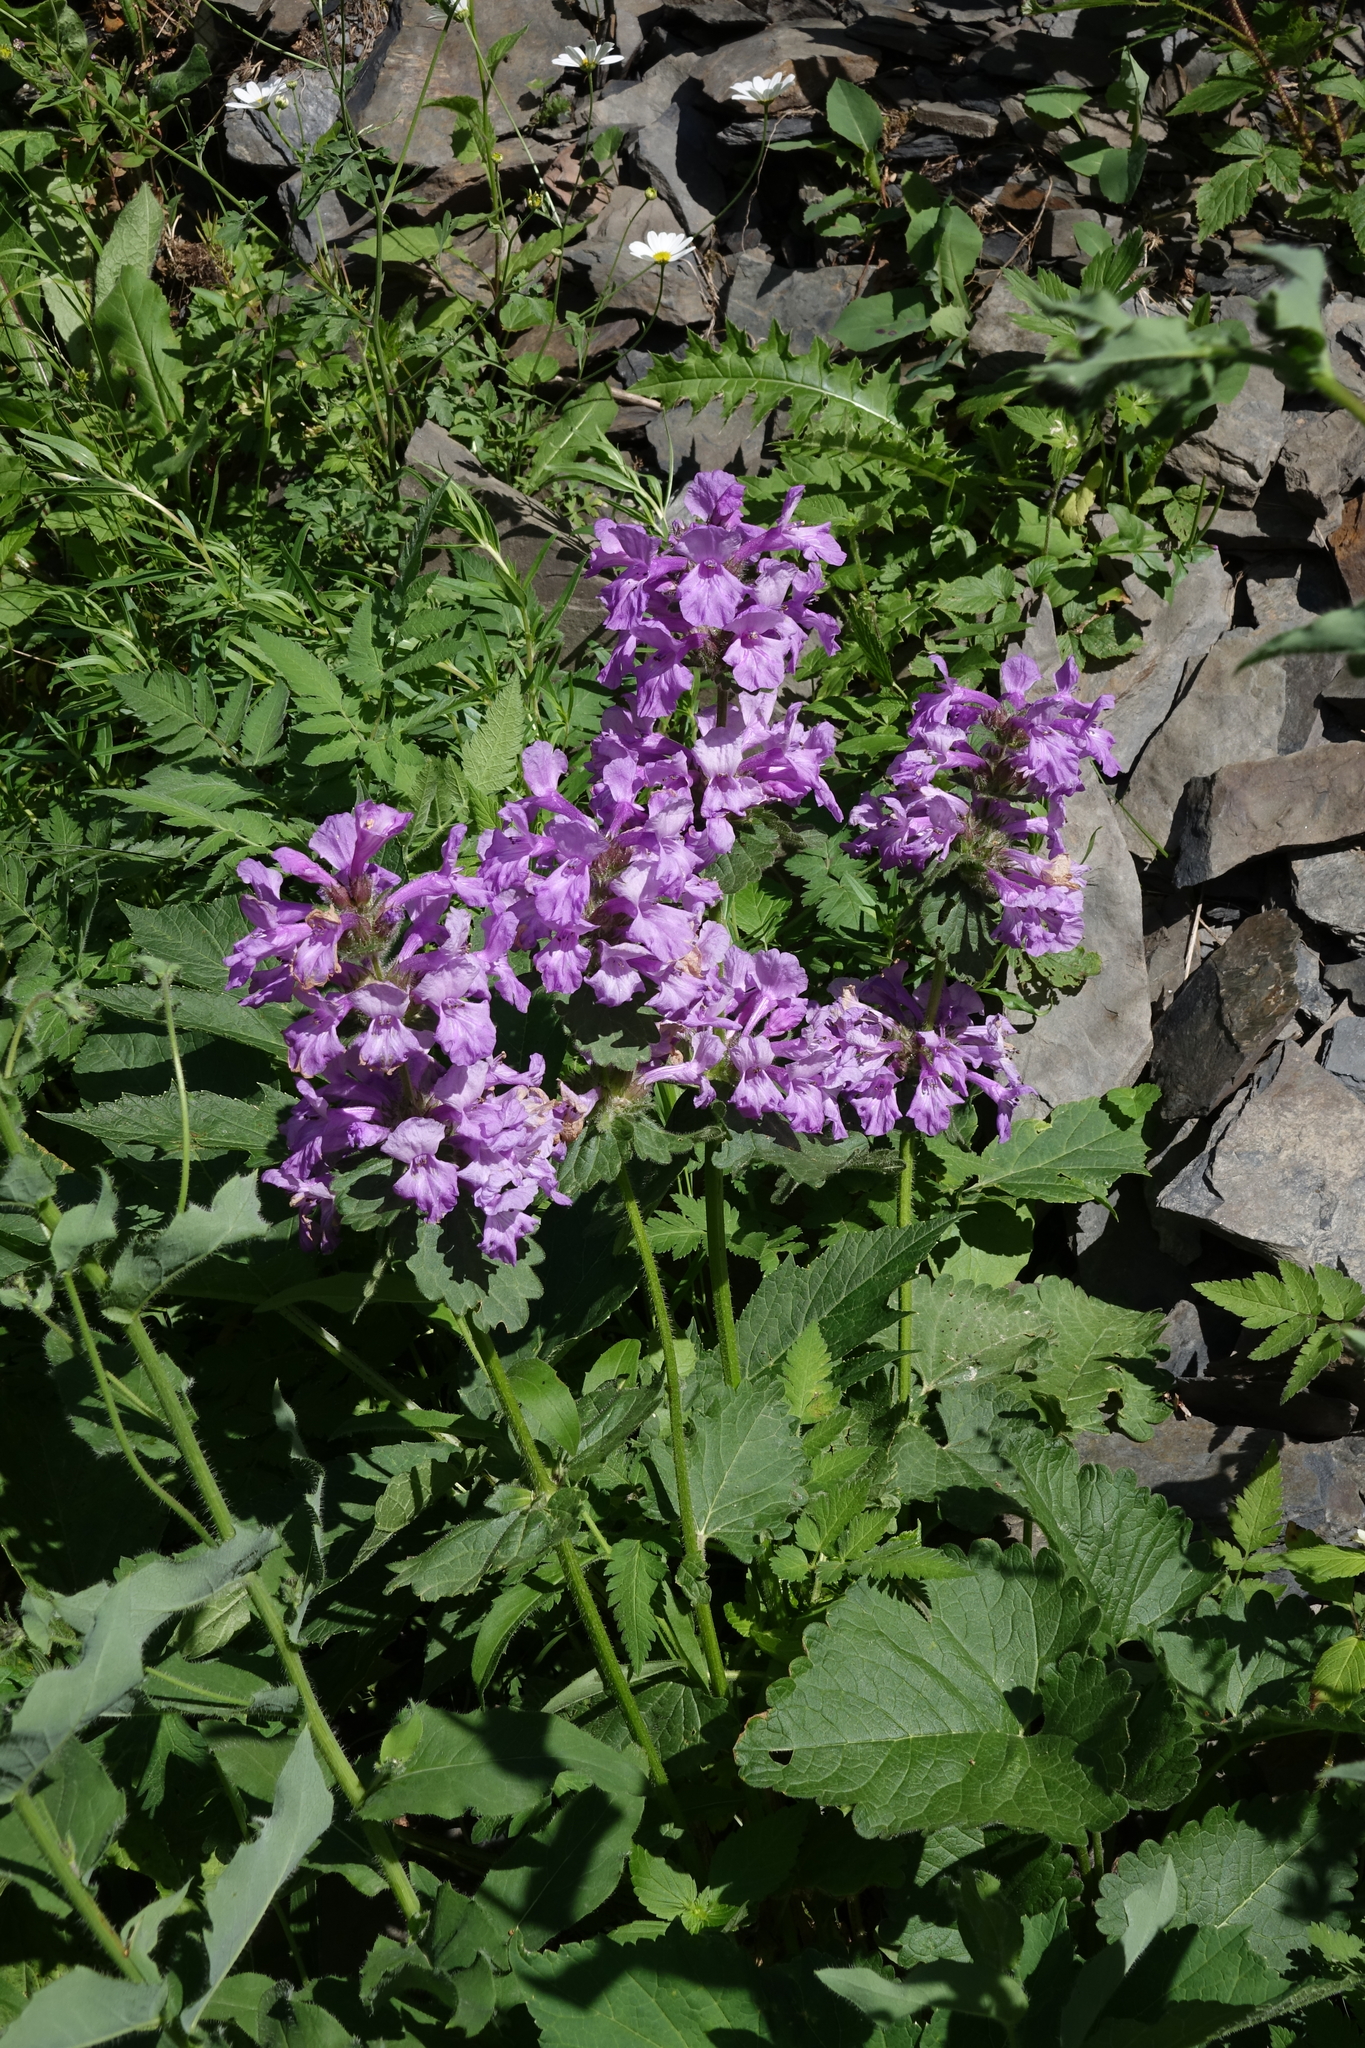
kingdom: Plantae
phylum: Tracheophyta
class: Magnoliopsida
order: Lamiales
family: Lamiaceae
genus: Betonica
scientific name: Betonica macrantha
